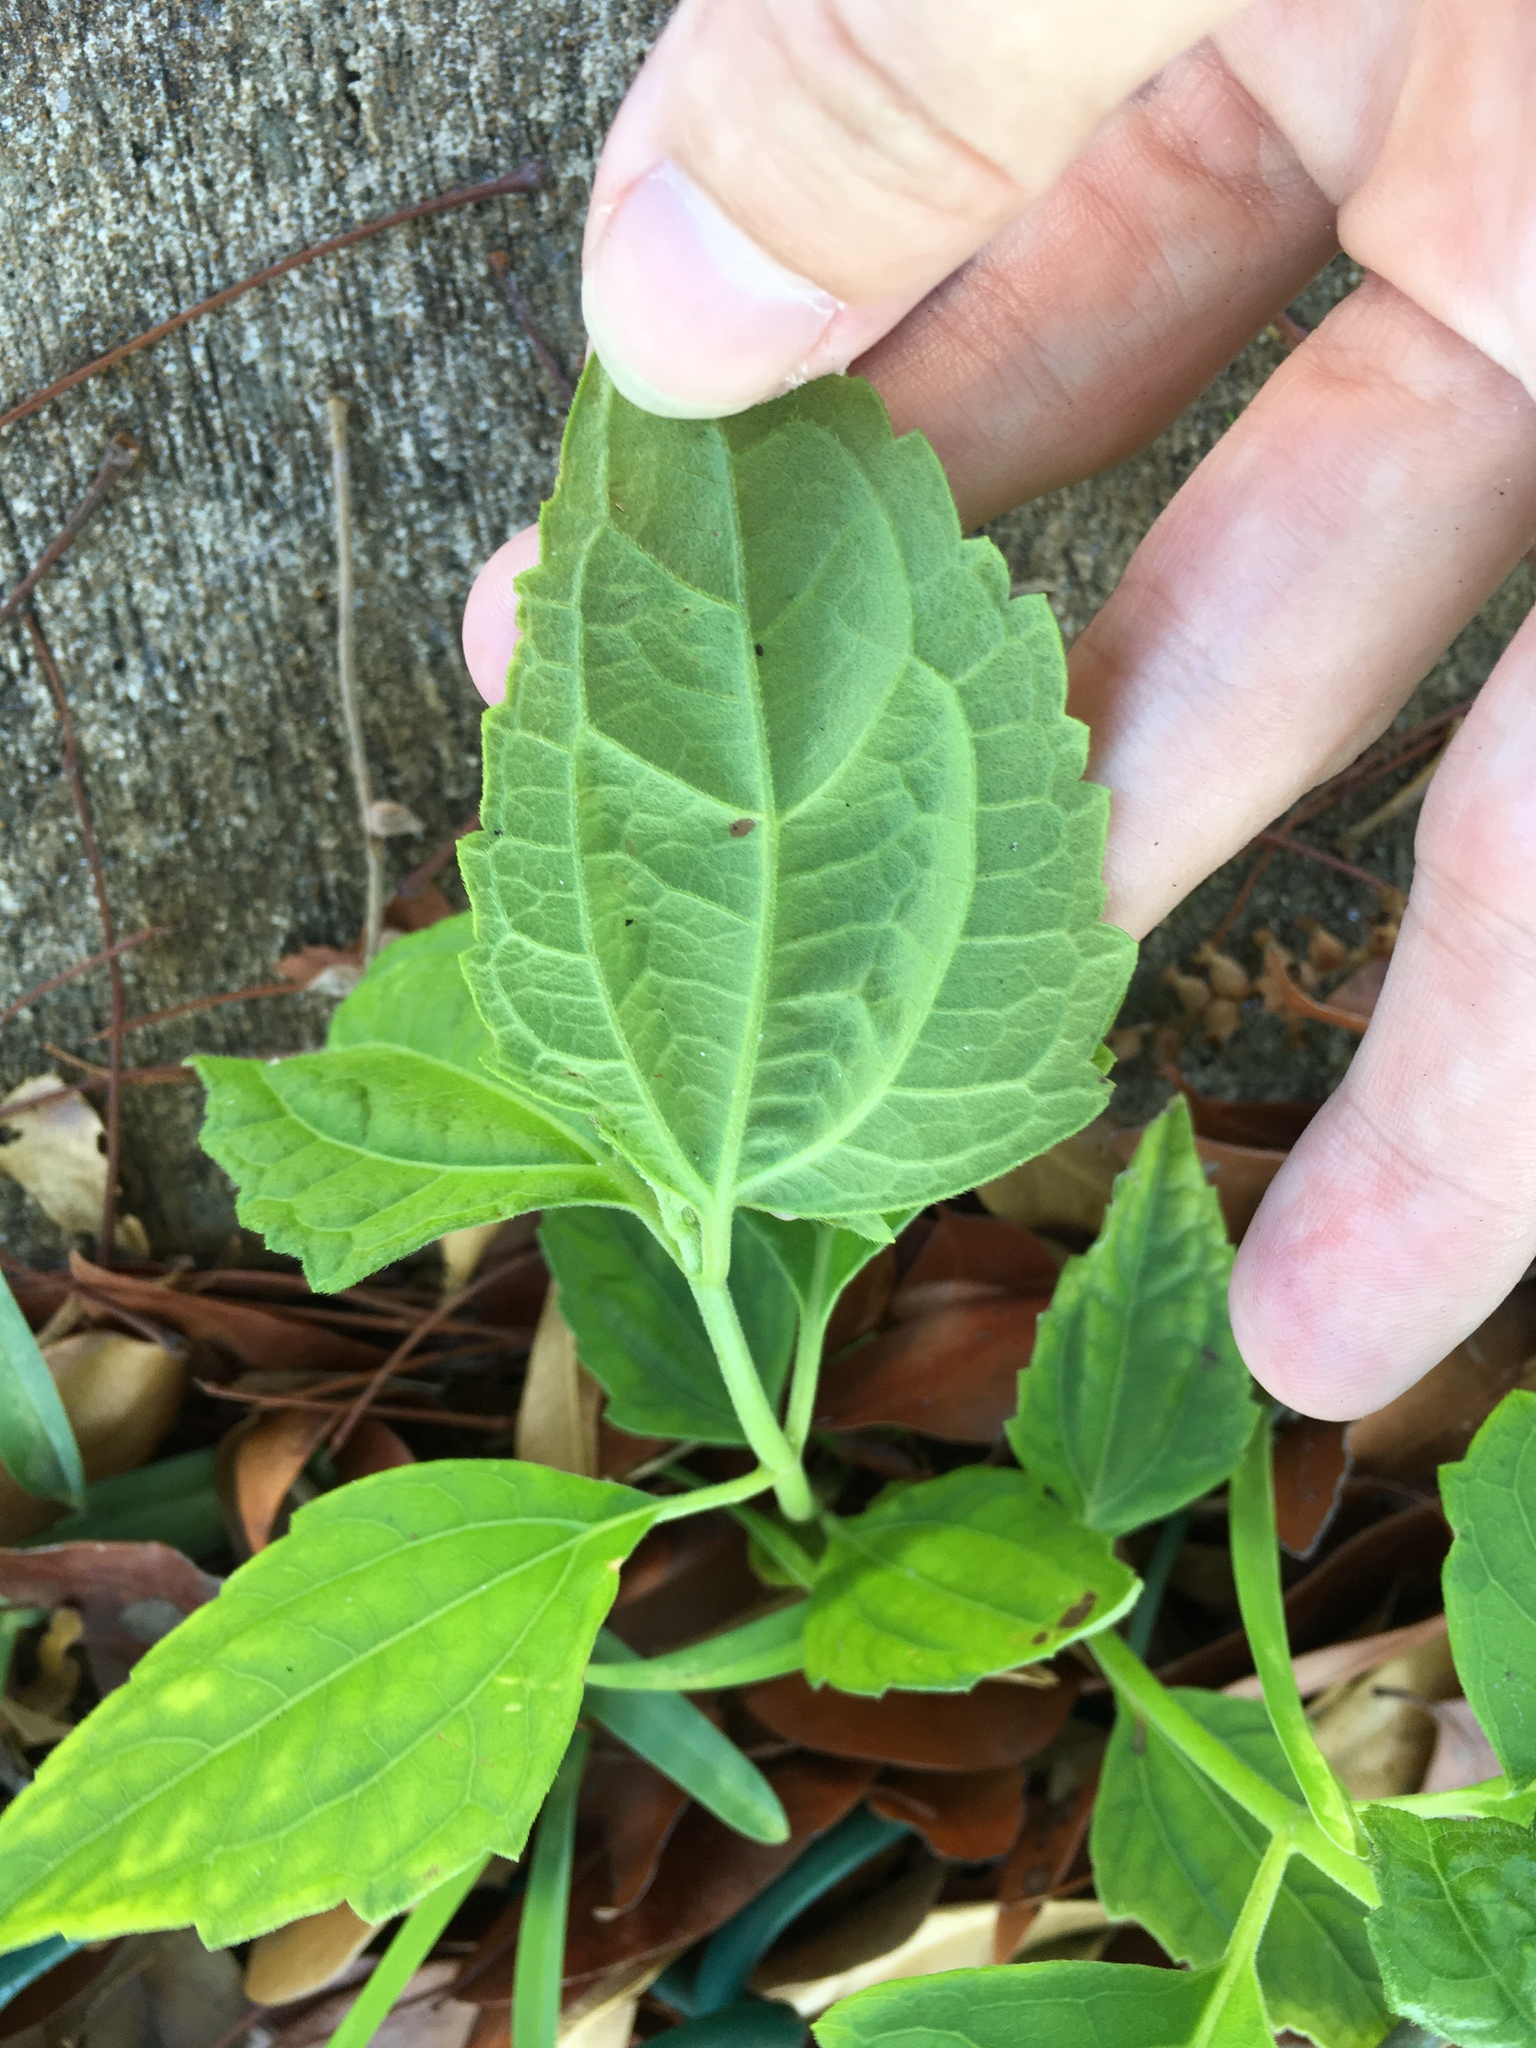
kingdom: Plantae
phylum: Tracheophyta
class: Magnoliopsida
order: Asterales
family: Asteraceae
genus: Chromolaena
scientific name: Chromolaena odorata
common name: Siamweed
